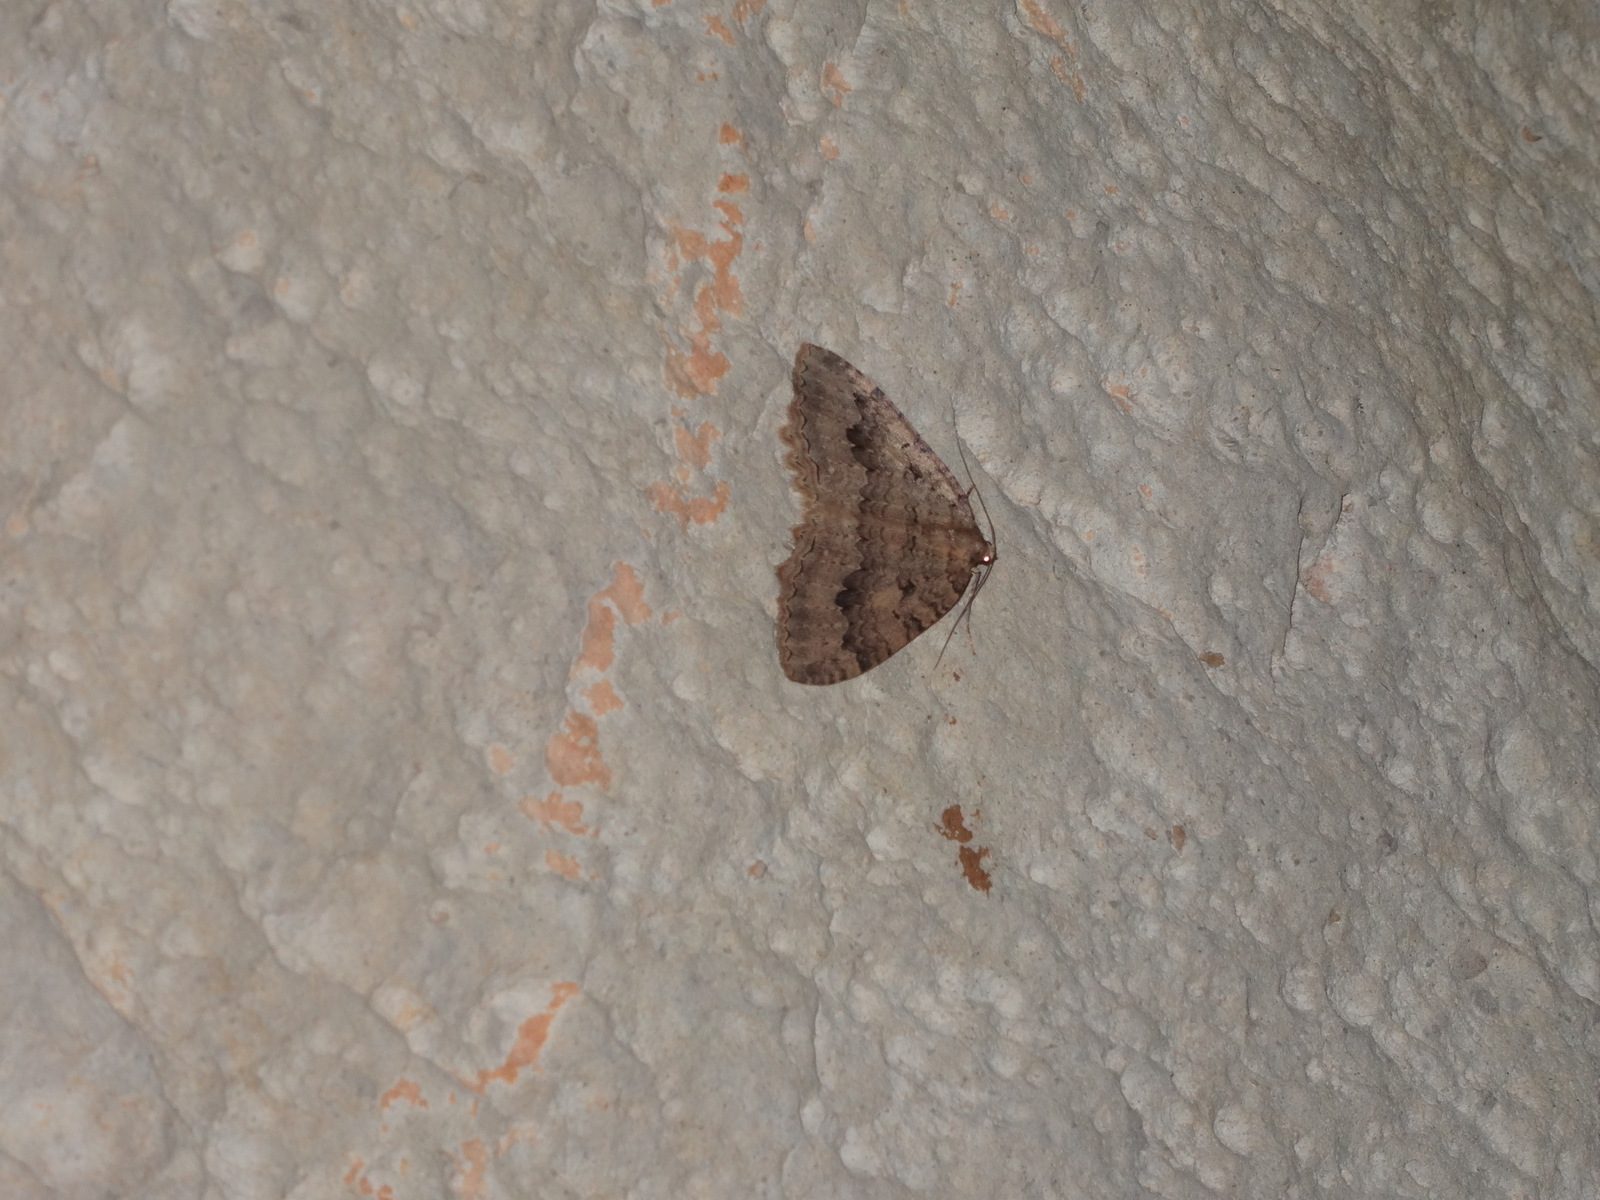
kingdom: Animalia
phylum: Arthropoda
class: Insecta
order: Lepidoptera
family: Geometridae
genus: Triphosa
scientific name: Triphosa dubitata
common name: Tissue
